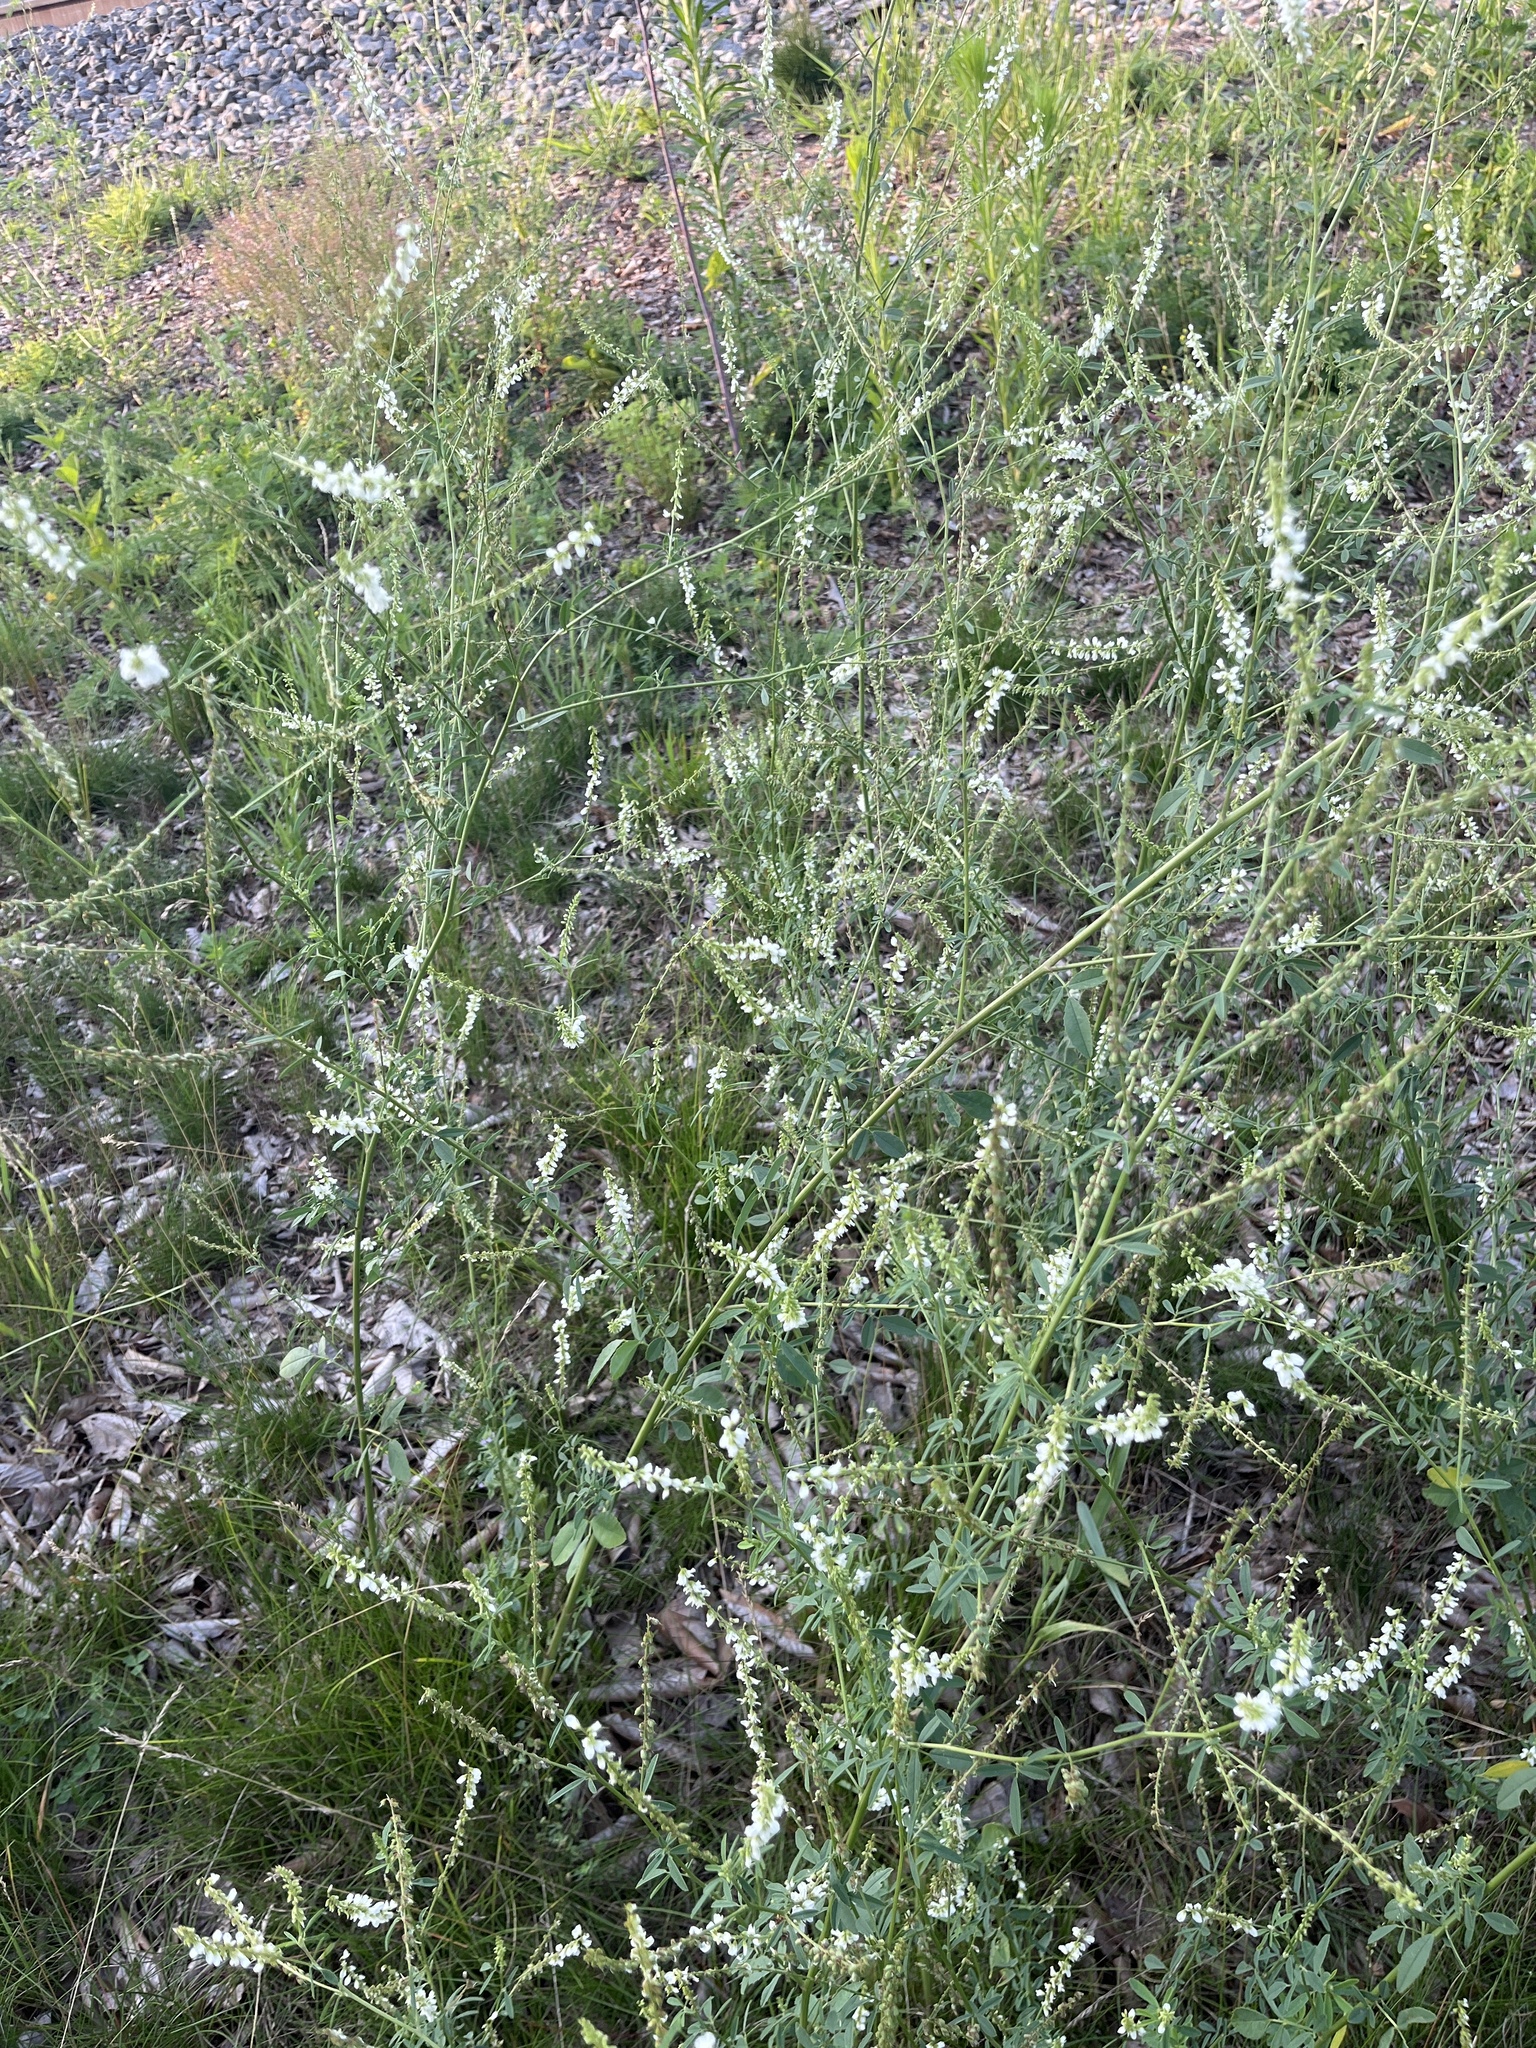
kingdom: Plantae
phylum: Tracheophyta
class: Magnoliopsida
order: Fabales
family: Fabaceae
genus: Melilotus
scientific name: Melilotus albus
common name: White melilot
